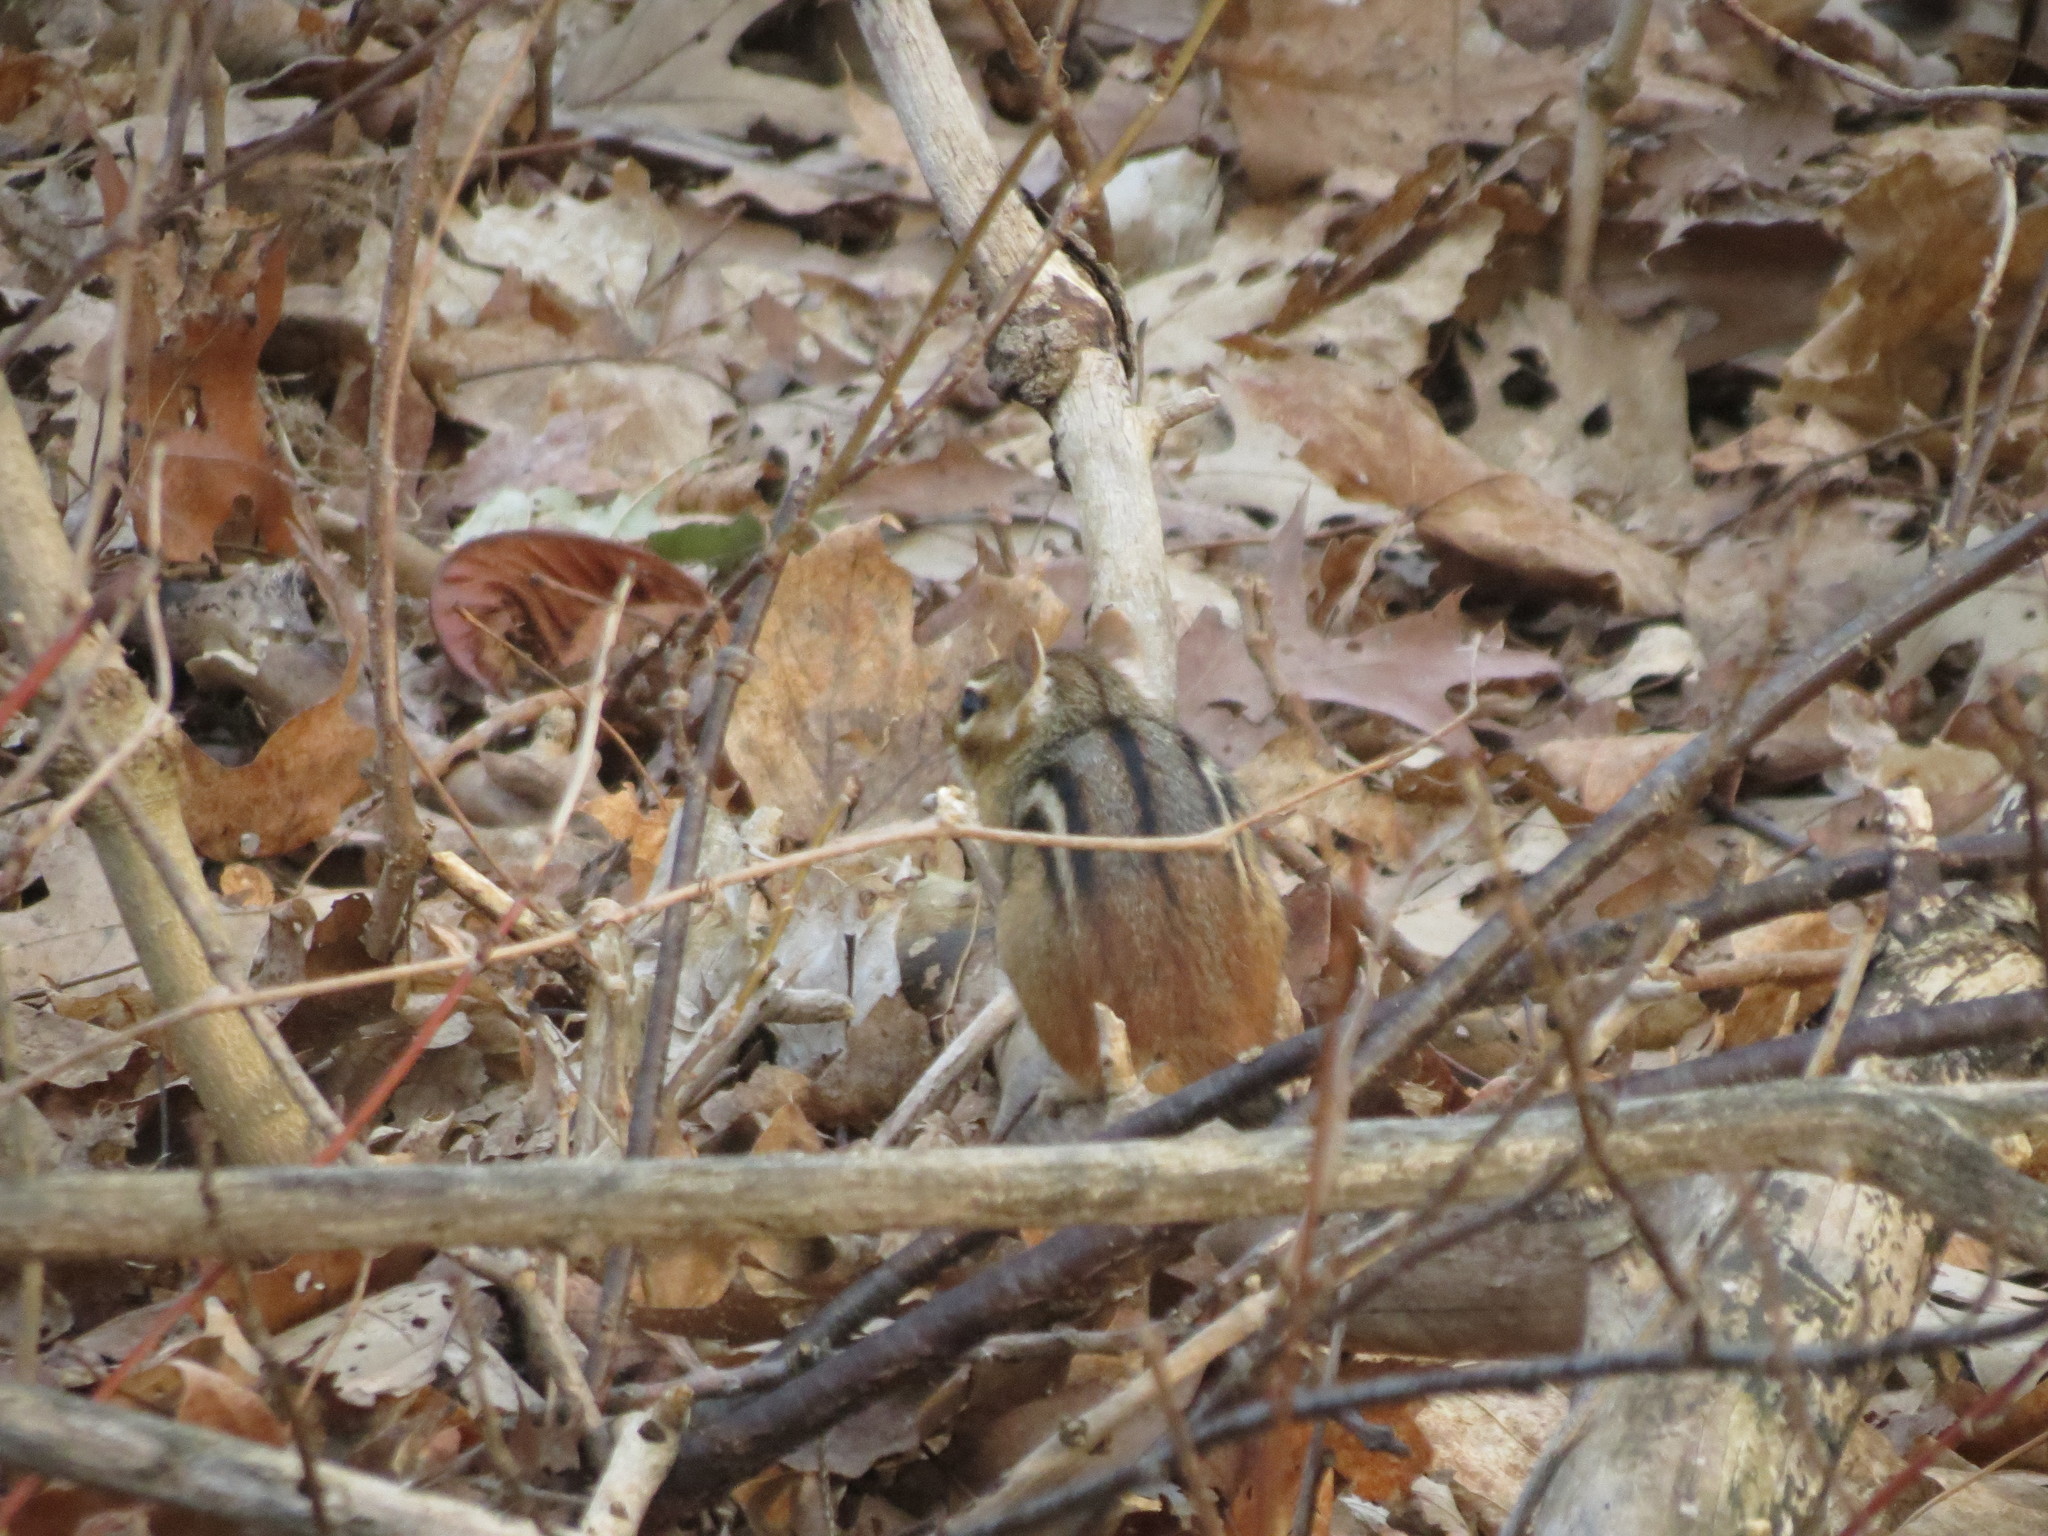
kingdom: Animalia
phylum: Chordata
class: Mammalia
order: Rodentia
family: Sciuridae
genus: Tamias
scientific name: Tamias striatus
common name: Eastern chipmunk
